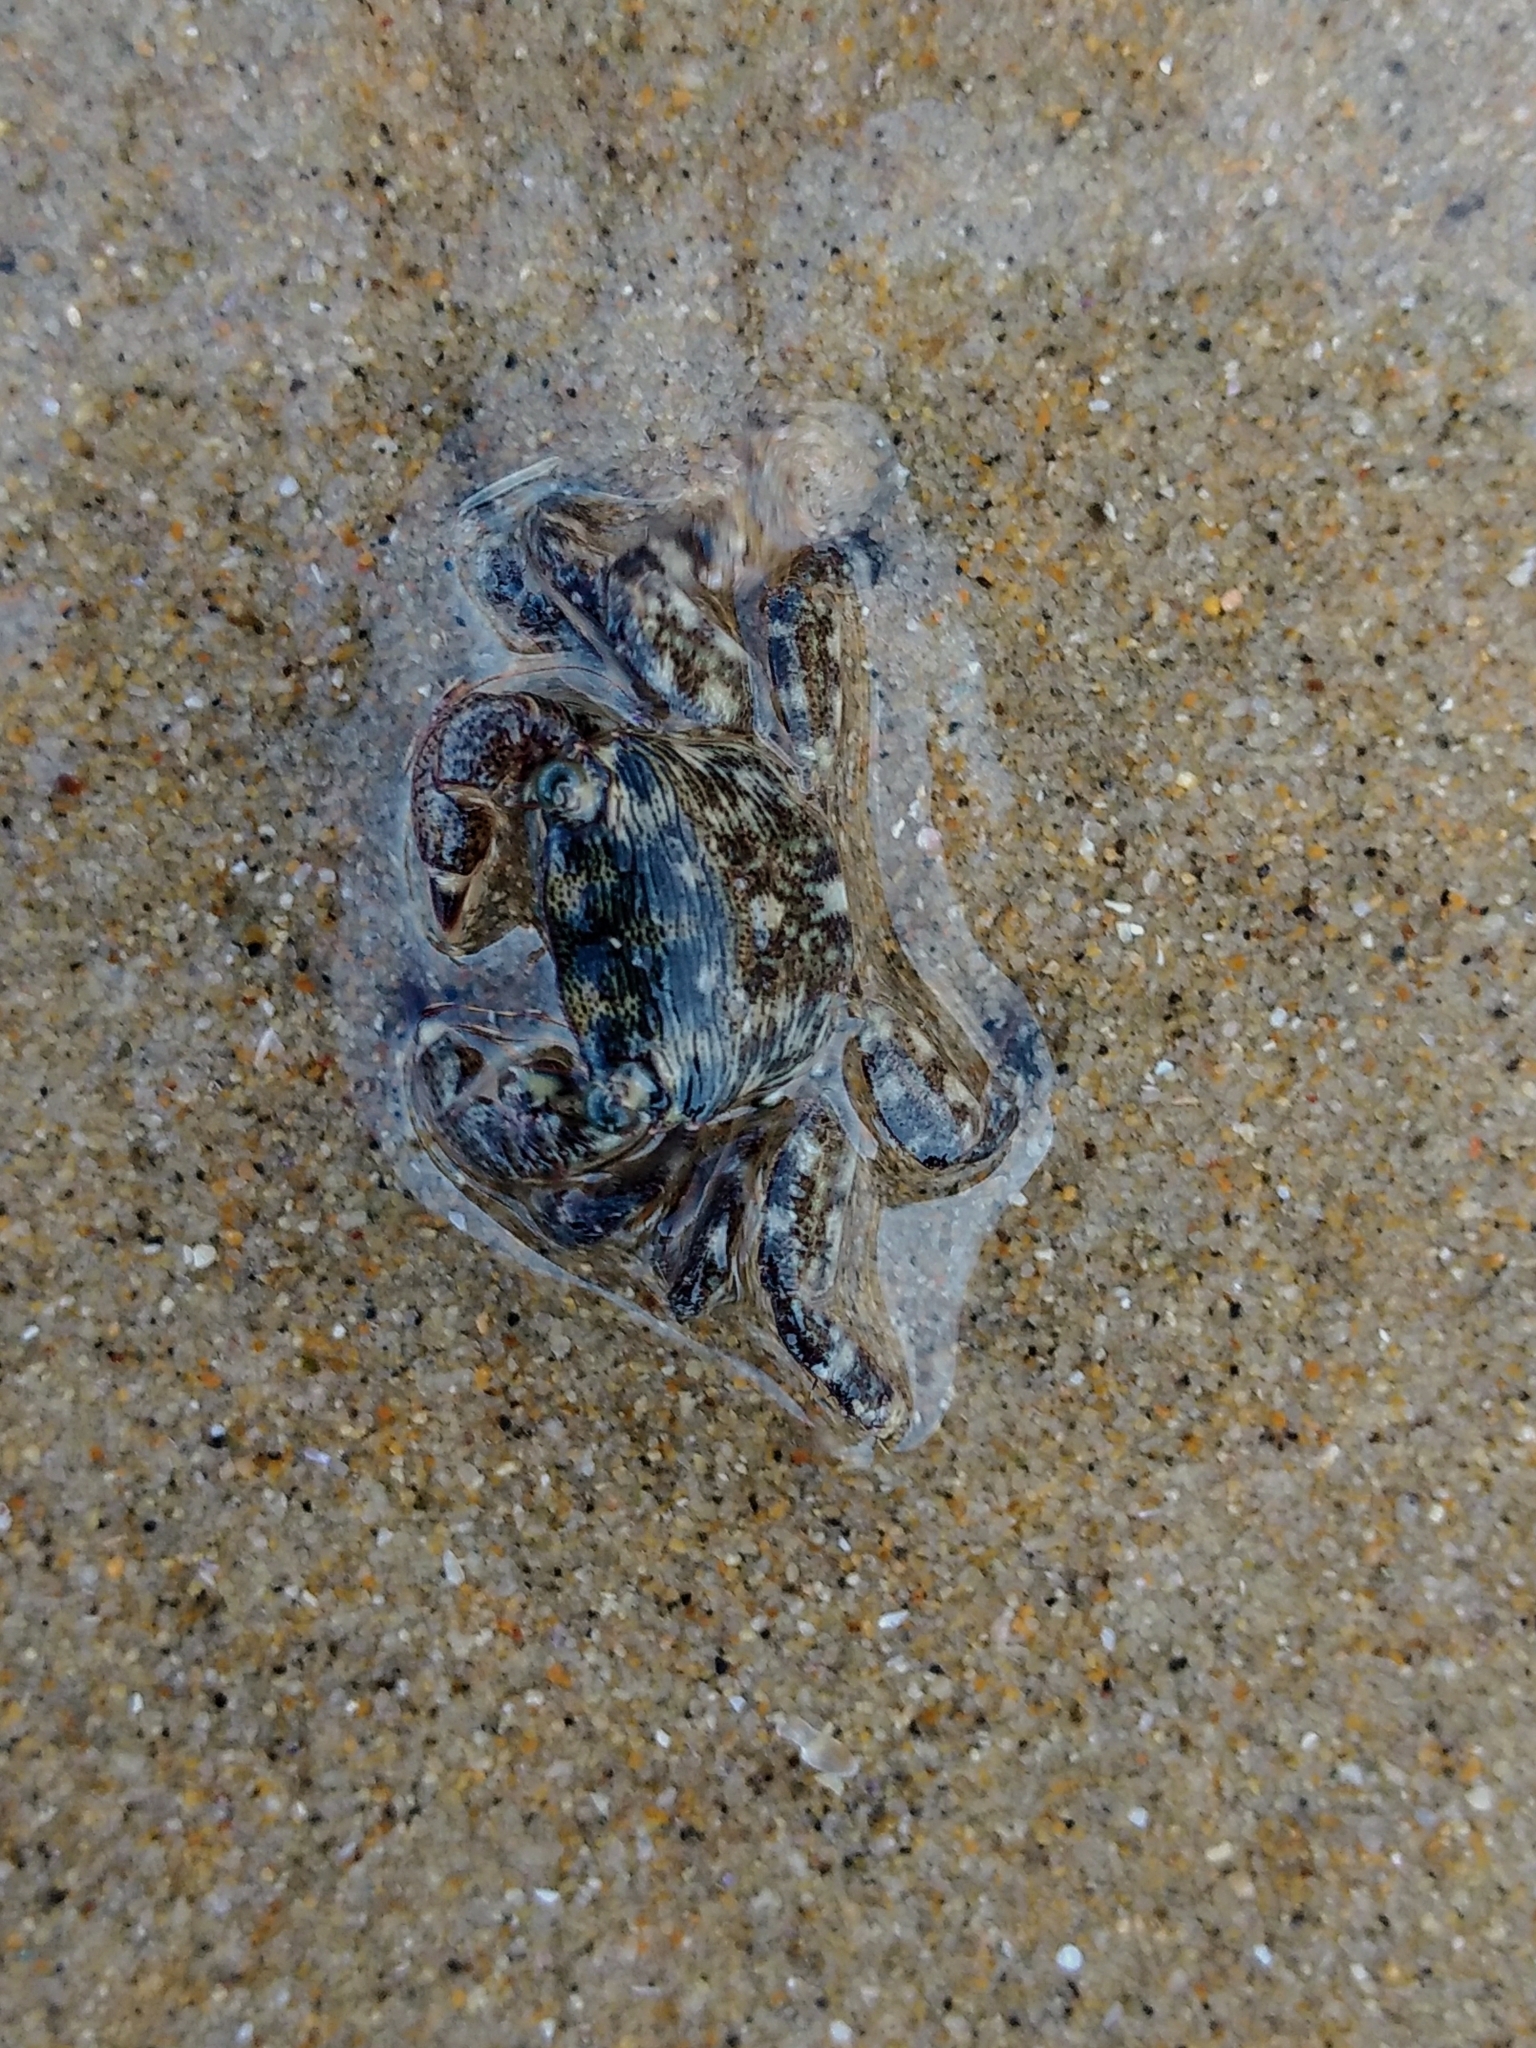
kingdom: Animalia
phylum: Arthropoda
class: Malacostraca
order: Decapoda
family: Grapsidae
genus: Pachygrapsus
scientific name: Pachygrapsus crassipes
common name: Striped shore crab
